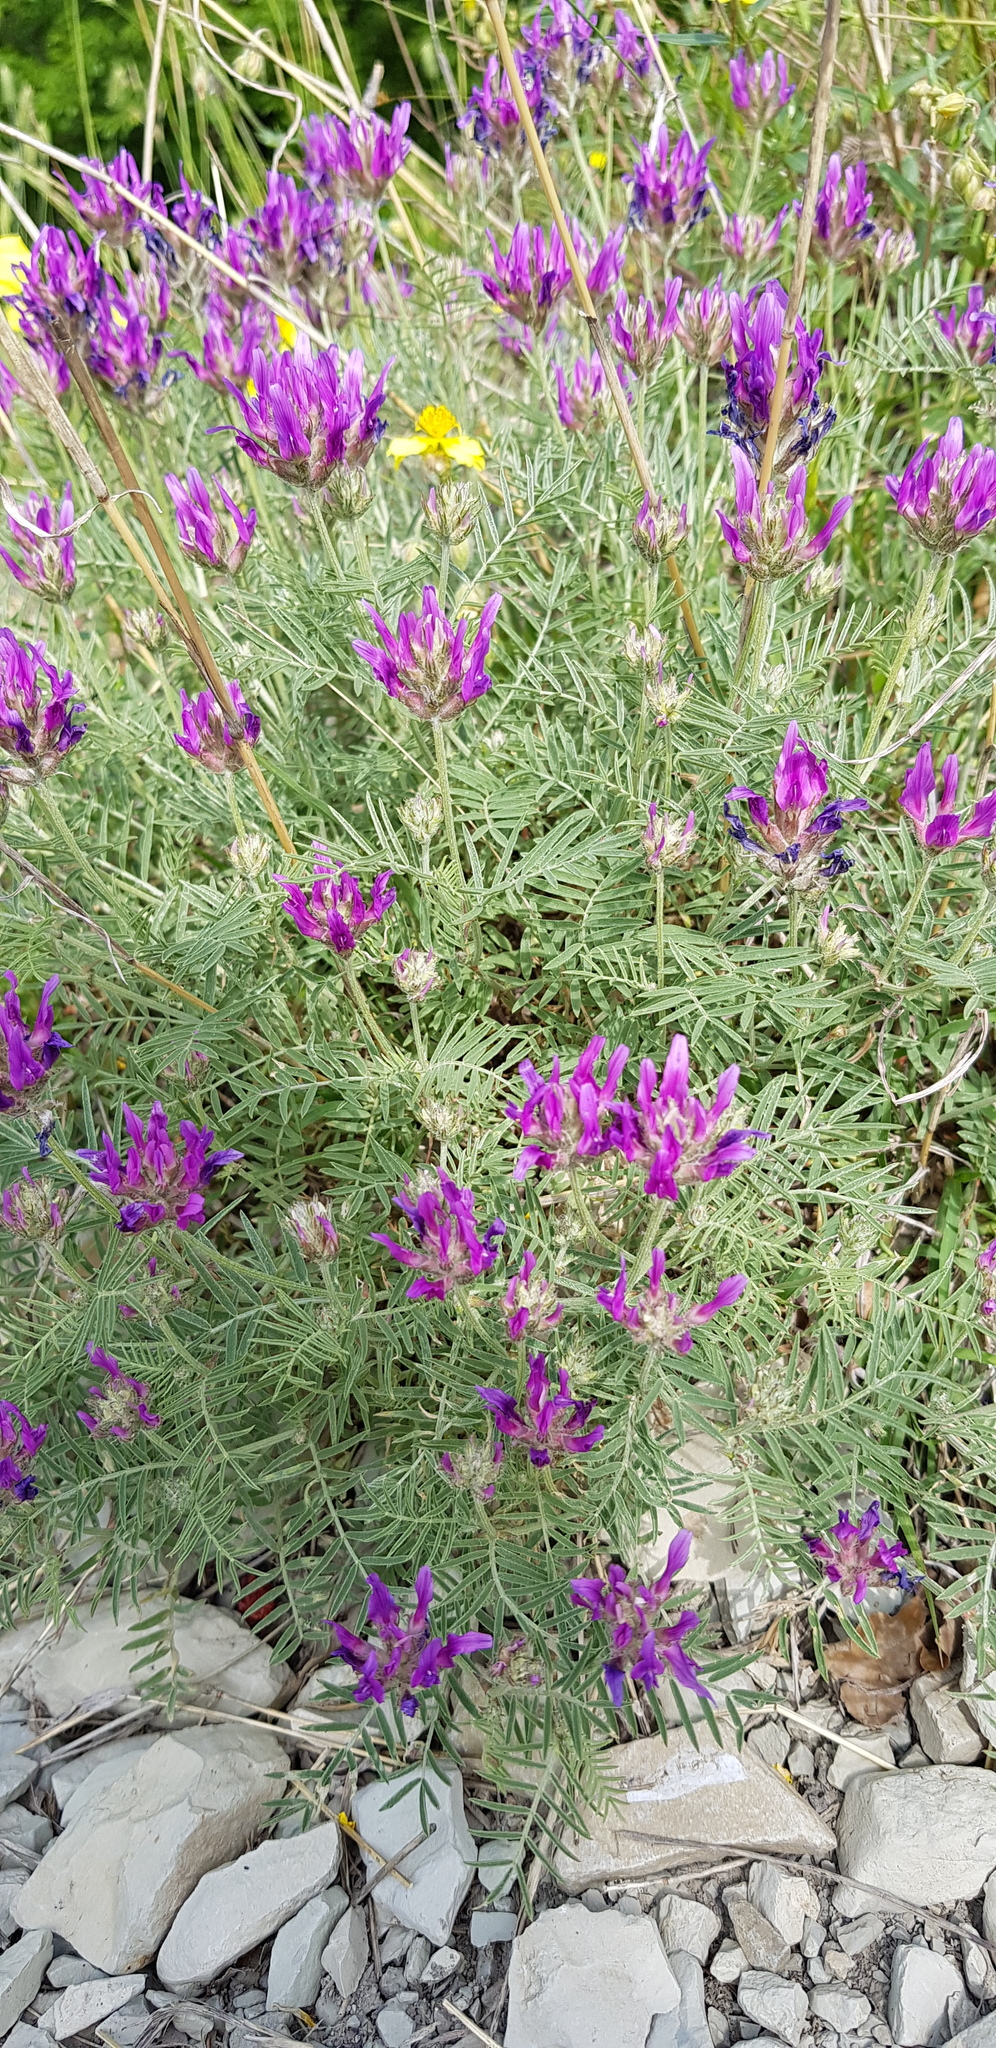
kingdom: Plantae
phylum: Tracheophyta
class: Magnoliopsida
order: Fabales
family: Fabaceae
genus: Astragalus
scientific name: Astragalus onobrychis
